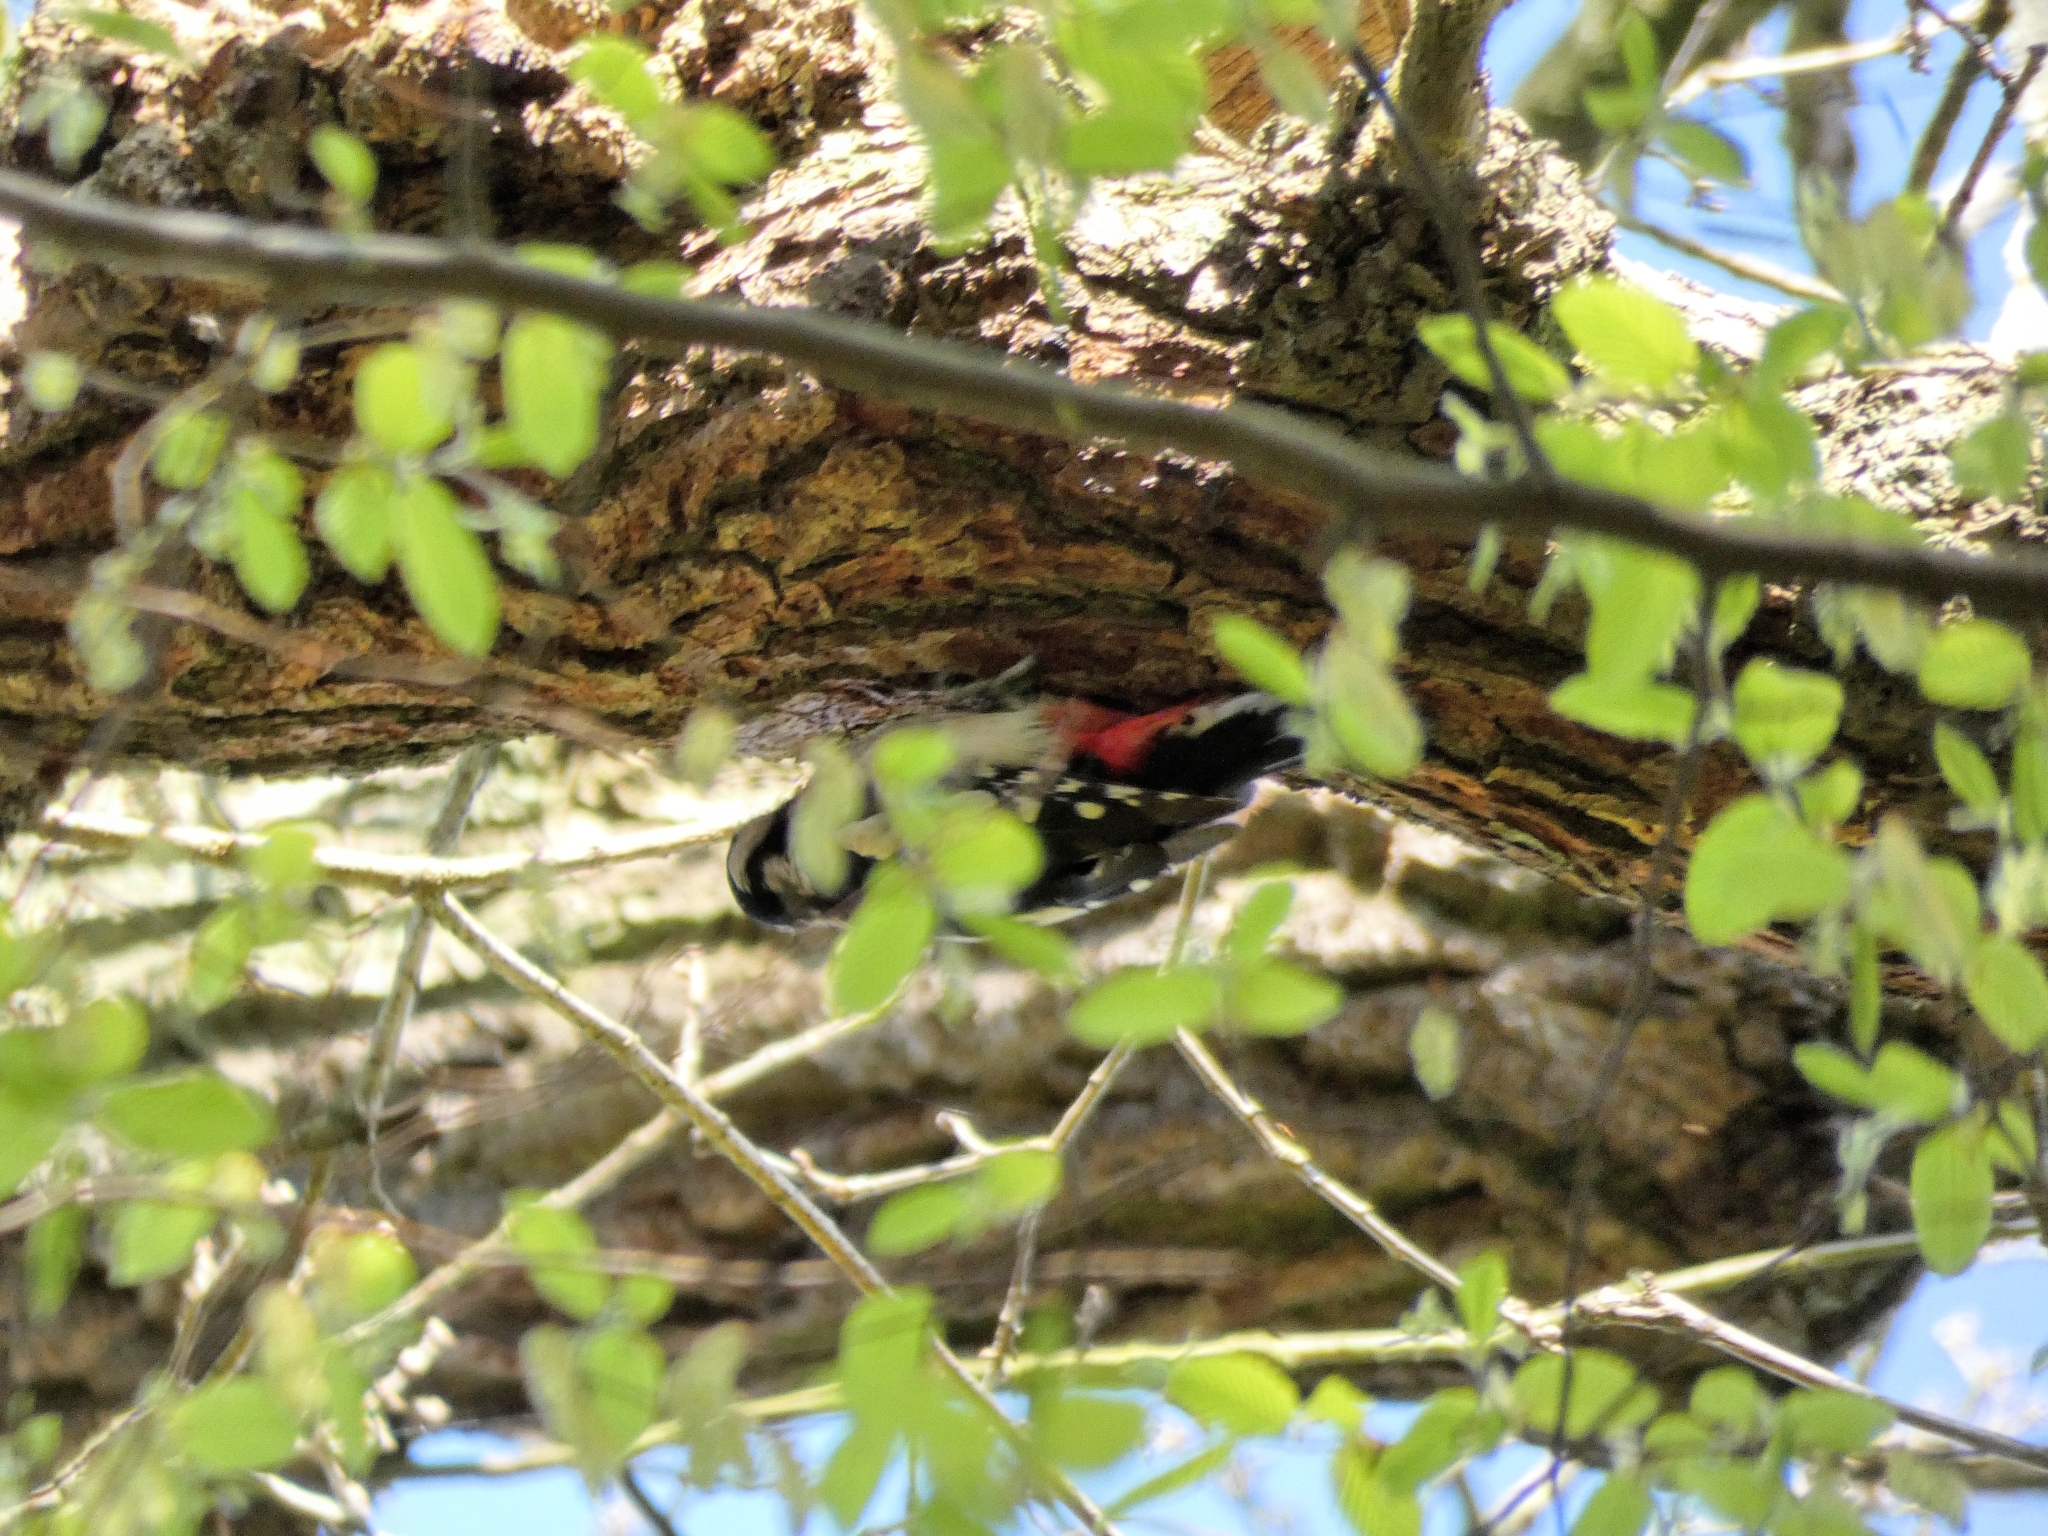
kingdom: Animalia
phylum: Chordata
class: Aves
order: Piciformes
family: Picidae
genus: Dendrocopos
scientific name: Dendrocopos major
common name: Great spotted woodpecker
